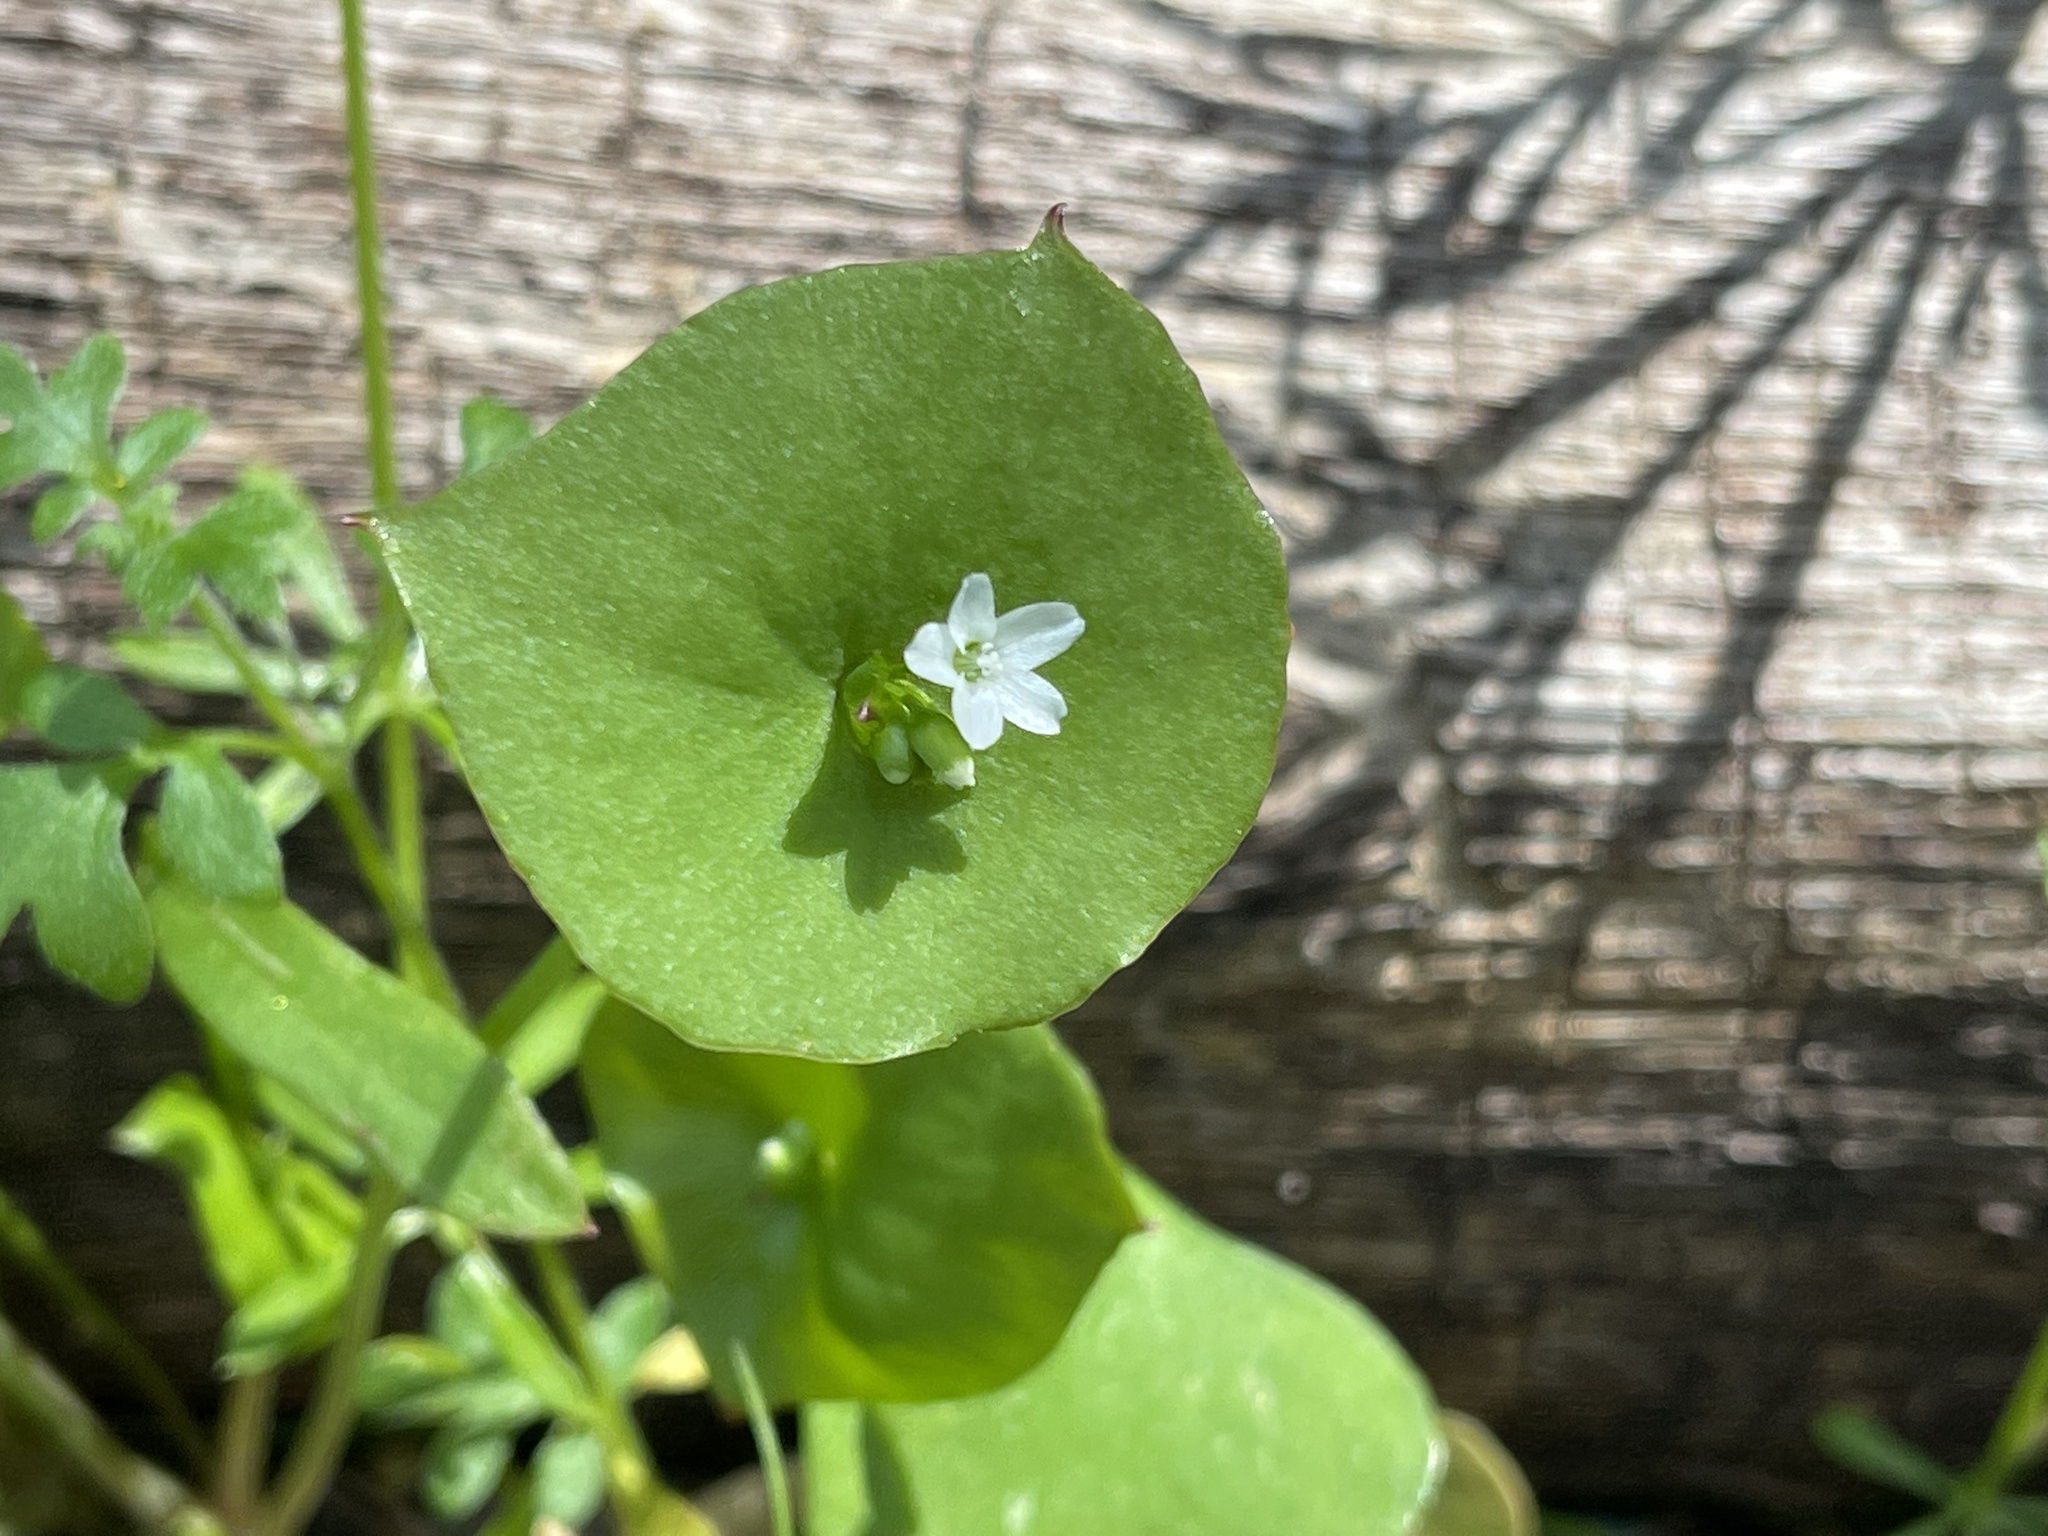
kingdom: Plantae
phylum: Tracheophyta
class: Magnoliopsida
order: Caryophyllales
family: Montiaceae
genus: Claytonia
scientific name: Claytonia perfoliata
